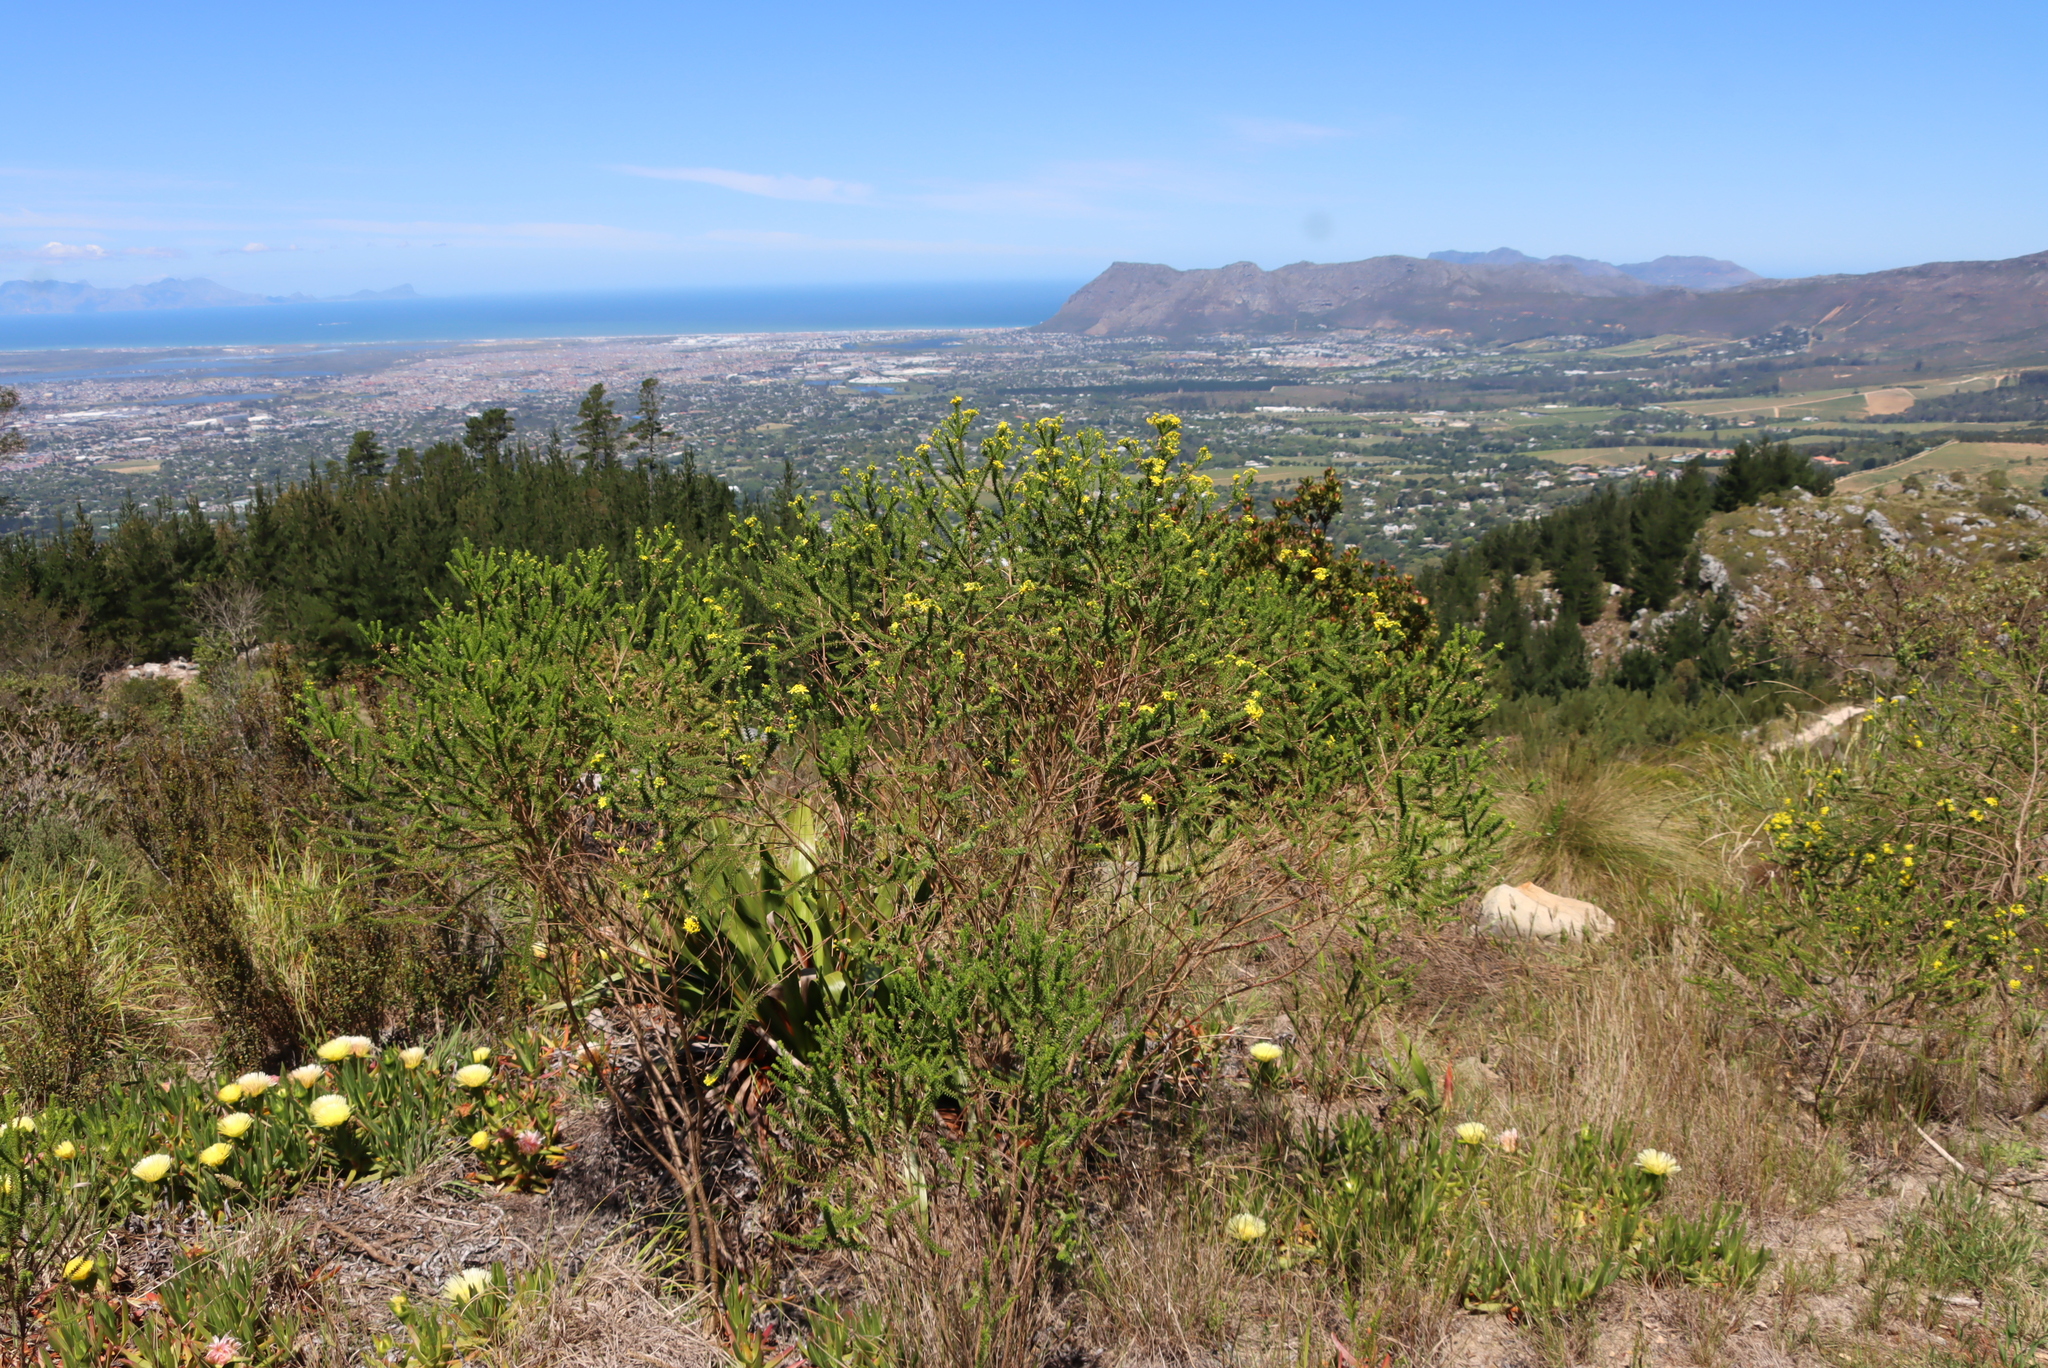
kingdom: Plantae
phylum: Tracheophyta
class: Magnoliopsida
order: Asterales
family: Asteraceae
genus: Euryops
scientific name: Euryops virgineus
